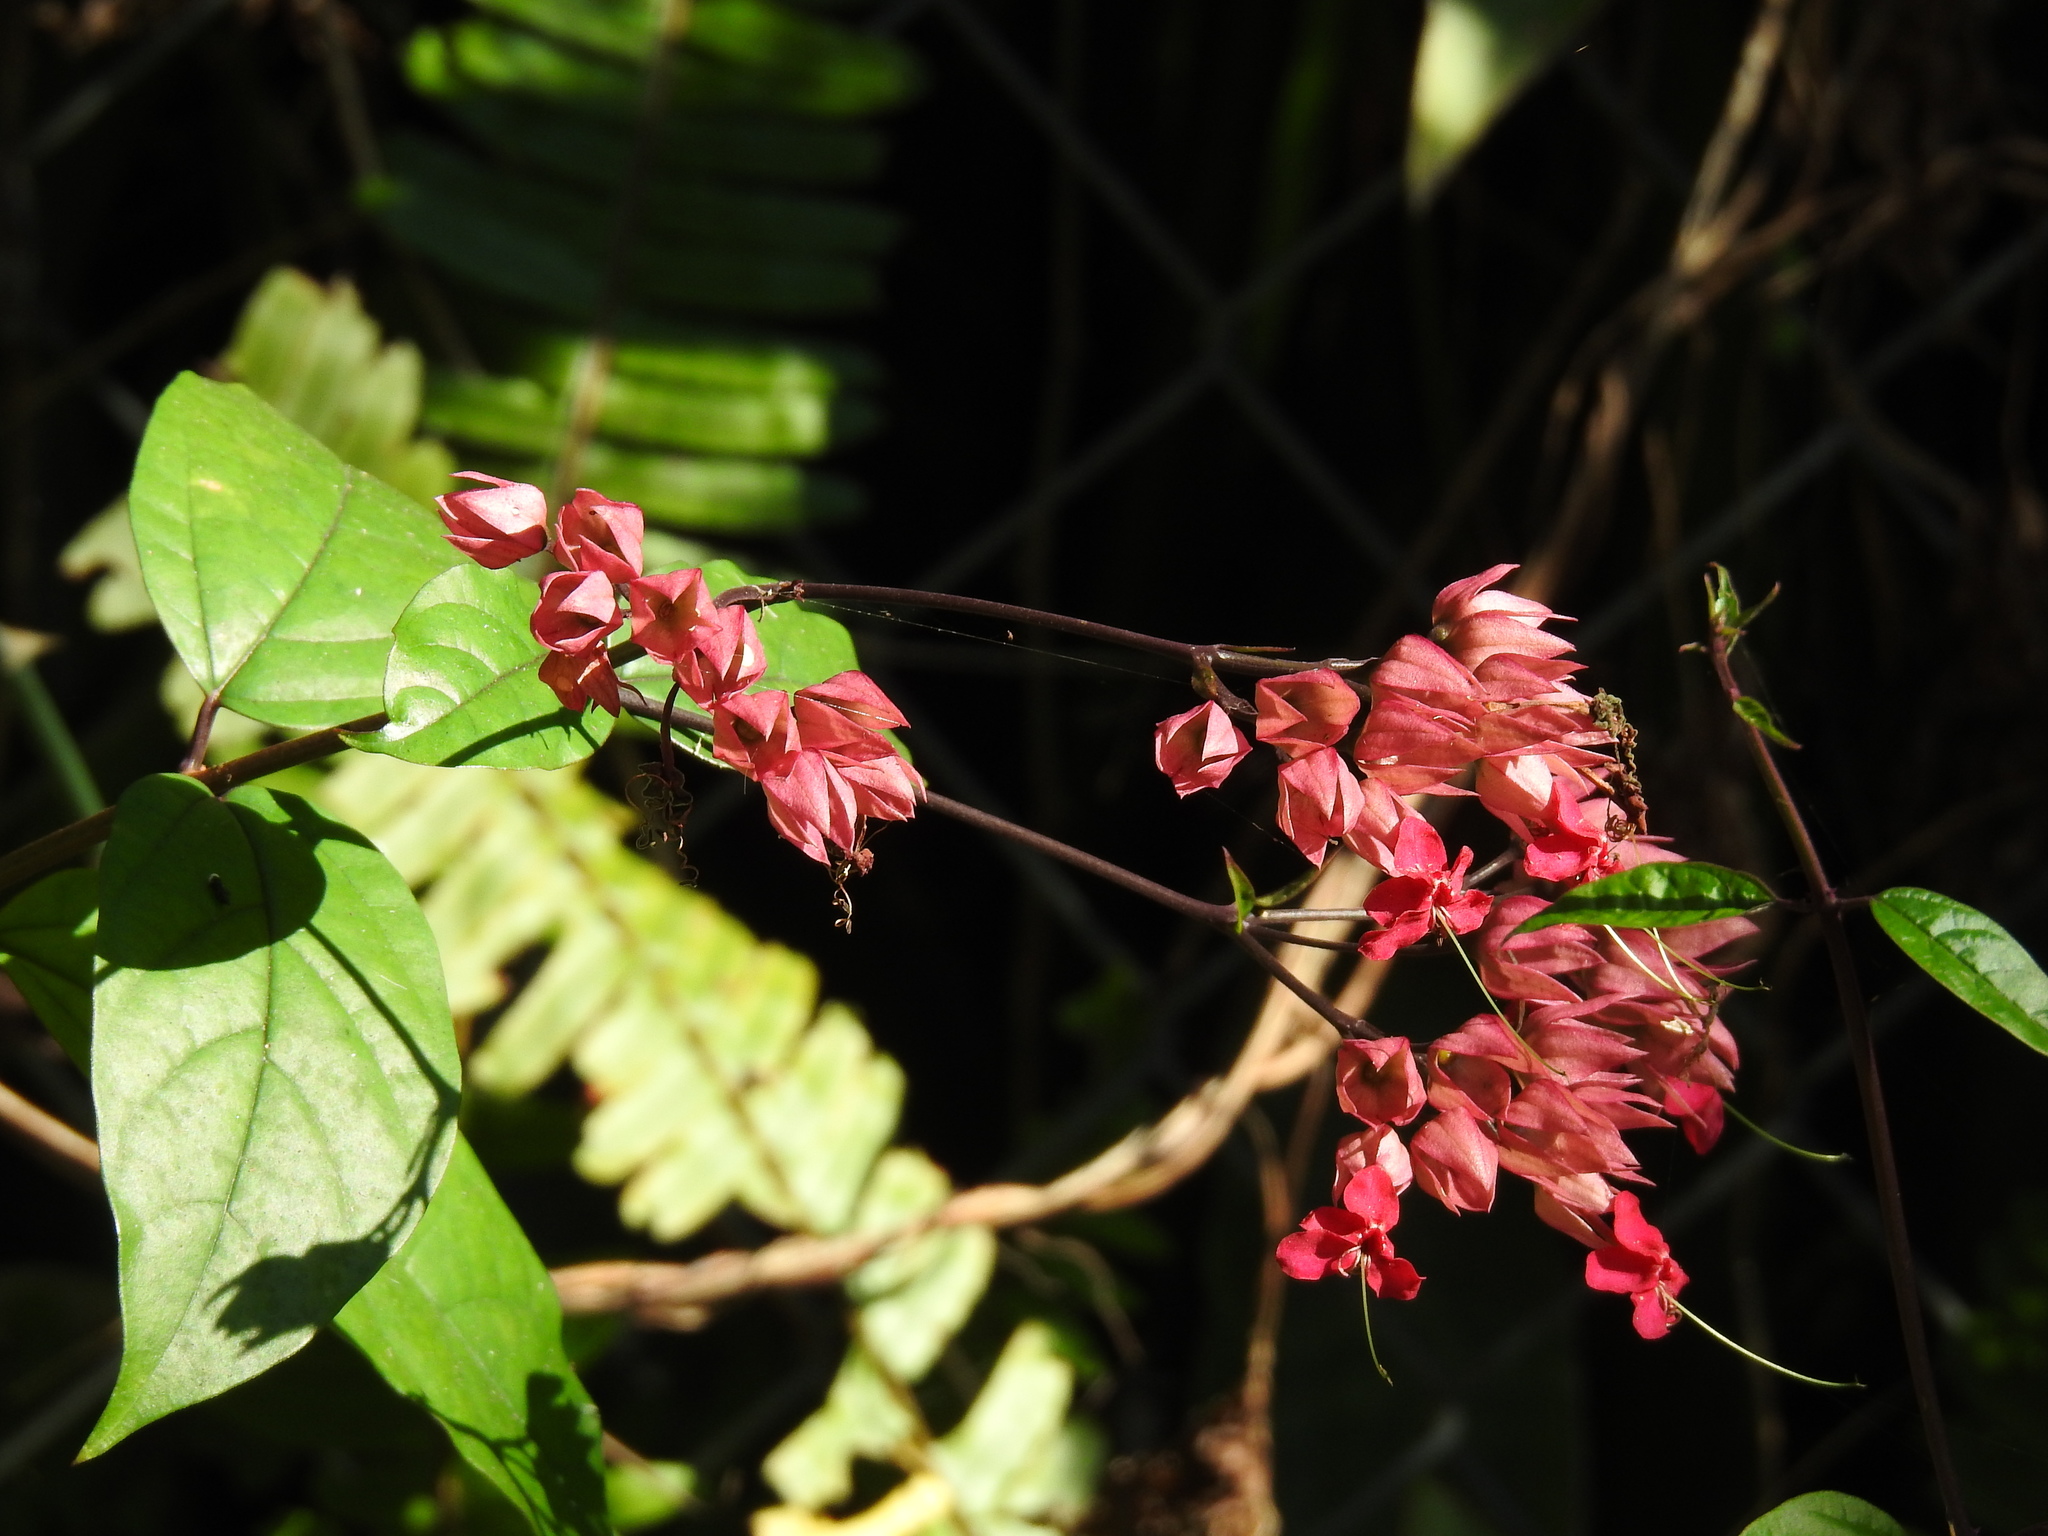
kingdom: Plantae
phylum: Tracheophyta
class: Magnoliopsida
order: Lamiales
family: Lamiaceae
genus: Clerodendrum
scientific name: Clerodendrum speciosum
